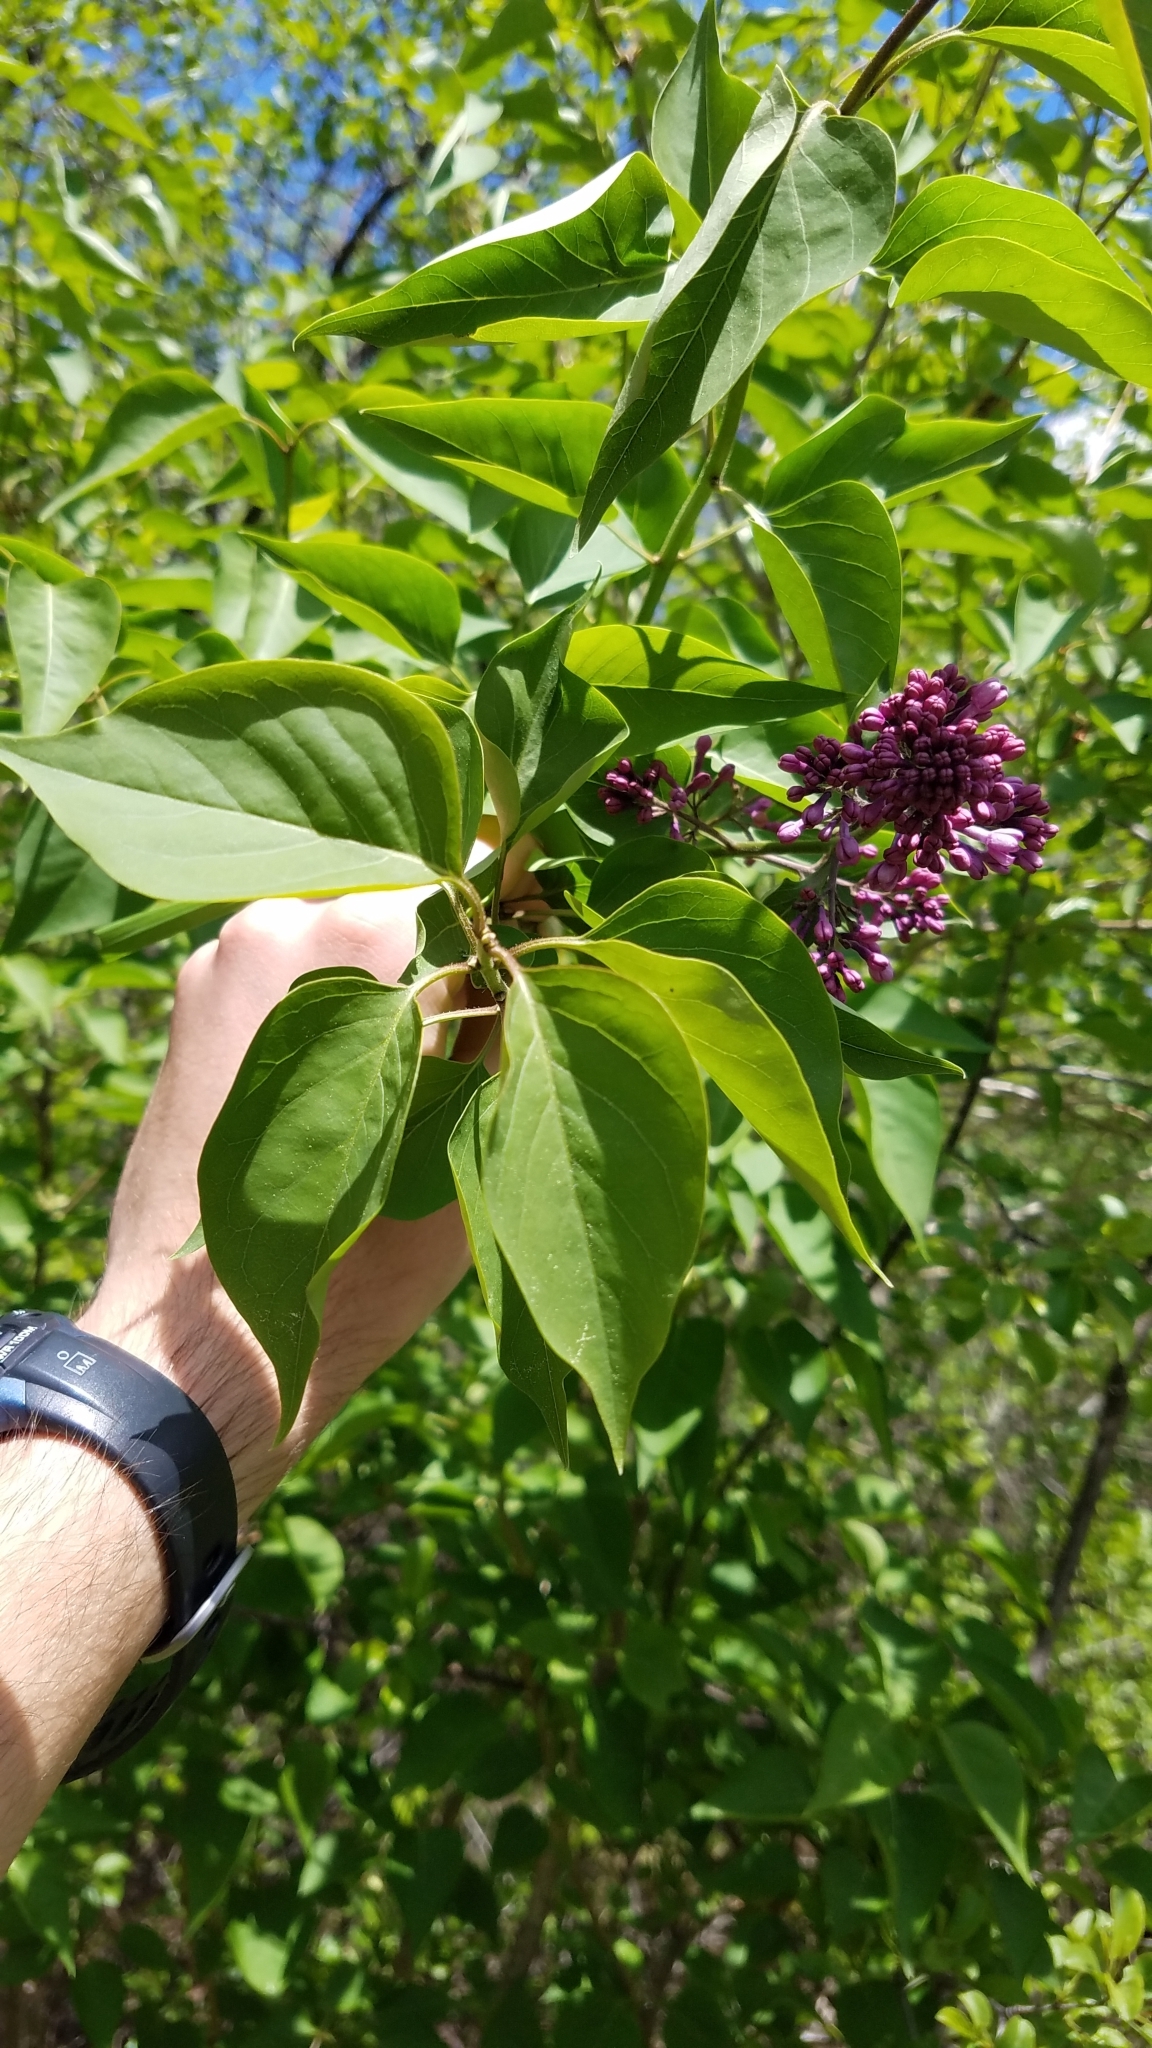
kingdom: Plantae
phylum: Tracheophyta
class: Magnoliopsida
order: Lamiales
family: Oleaceae
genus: Syringa
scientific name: Syringa vulgaris
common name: Common lilac
